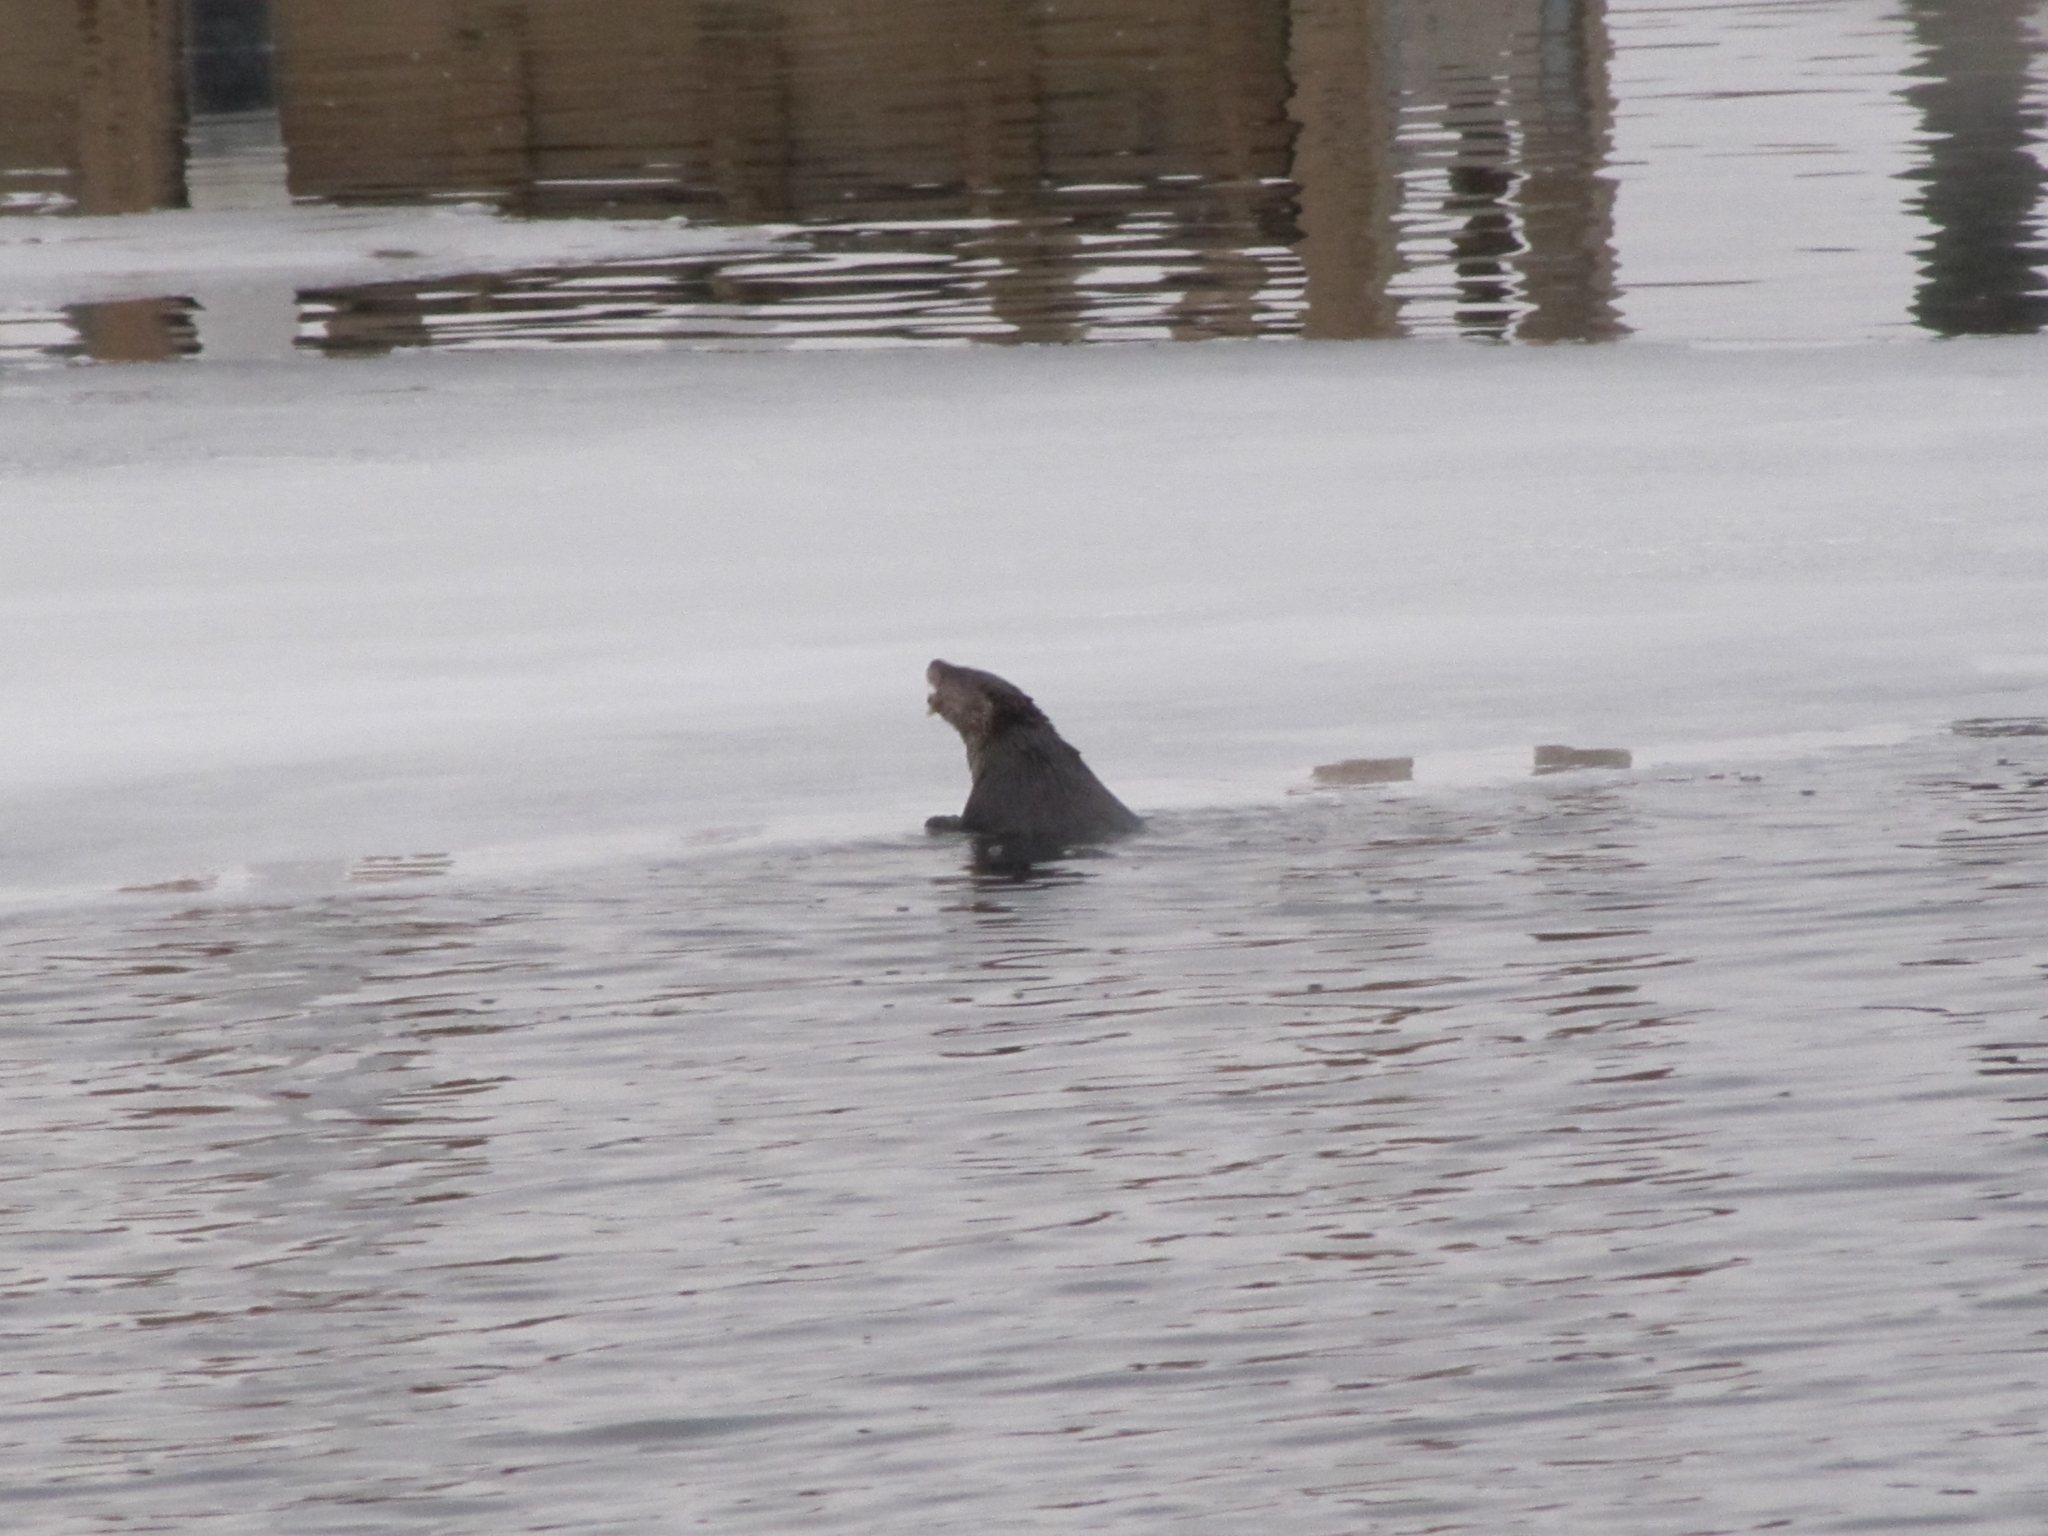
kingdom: Animalia
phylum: Chordata
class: Mammalia
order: Carnivora
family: Mustelidae
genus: Lontra
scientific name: Lontra canadensis
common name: North american river otter
